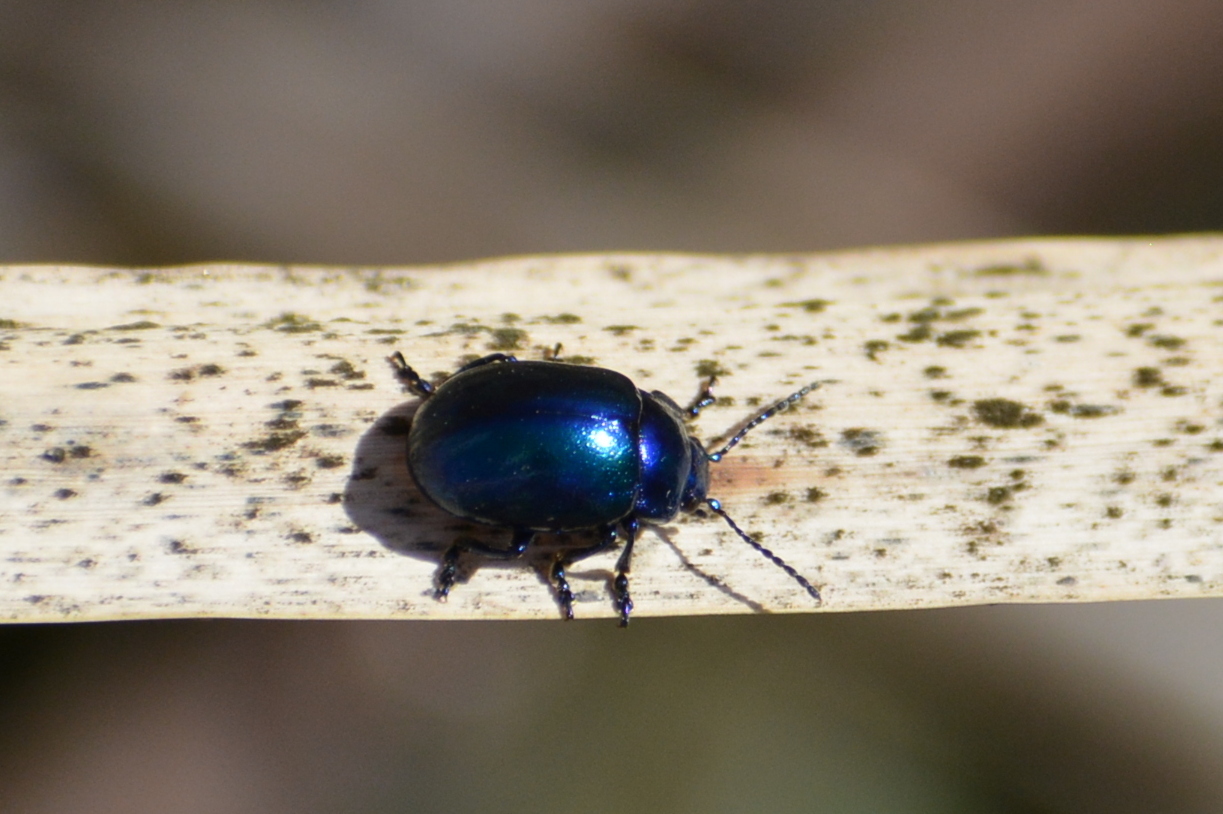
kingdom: Animalia
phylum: Arthropoda
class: Insecta
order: Coleoptera
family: Chrysomelidae
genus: Chrysolina
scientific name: Chrysolina coerulans
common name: Blue mint beetle
